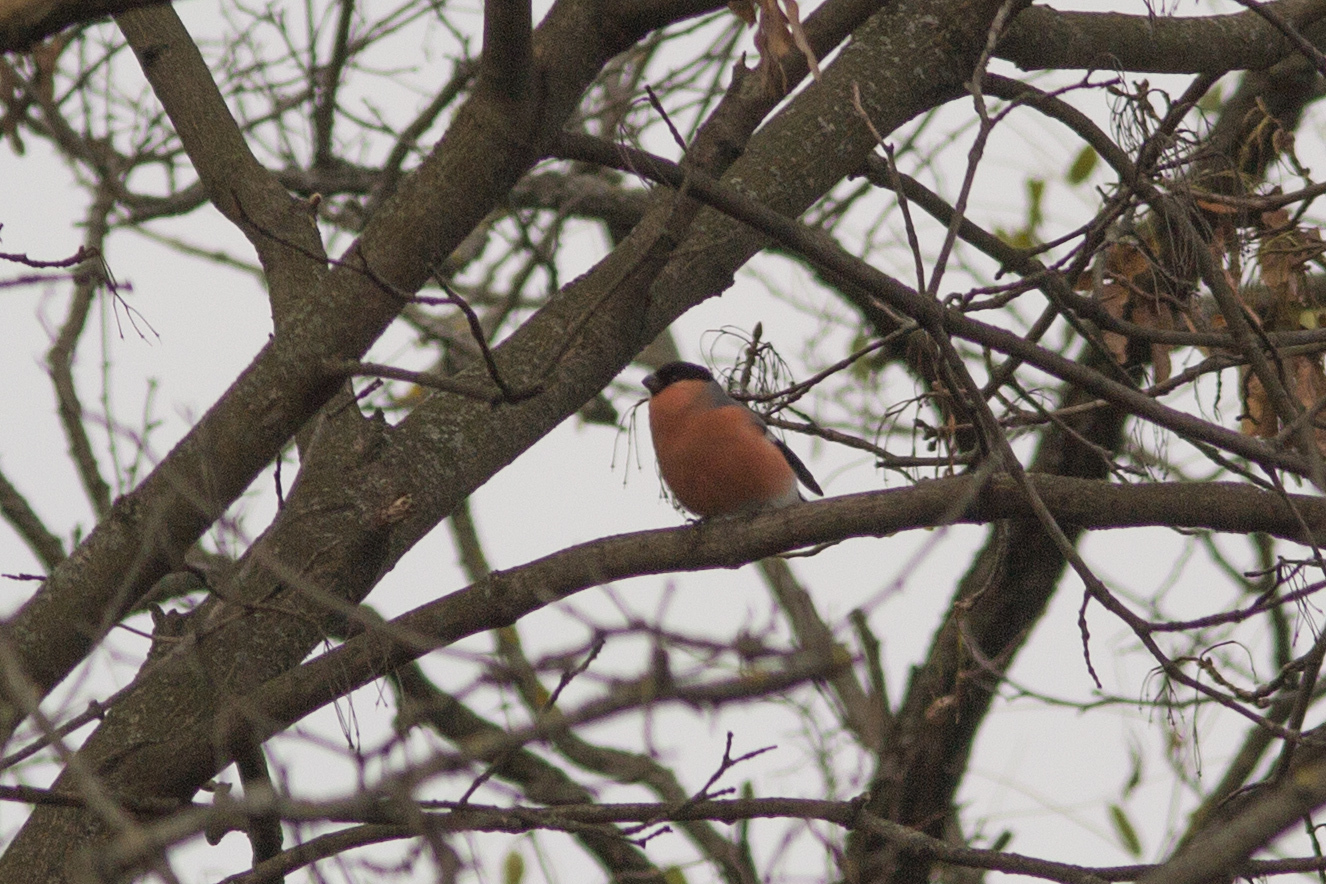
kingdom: Animalia
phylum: Chordata
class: Aves
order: Passeriformes
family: Fringillidae
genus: Pyrrhula
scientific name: Pyrrhula pyrrhula
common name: Eurasian bullfinch
